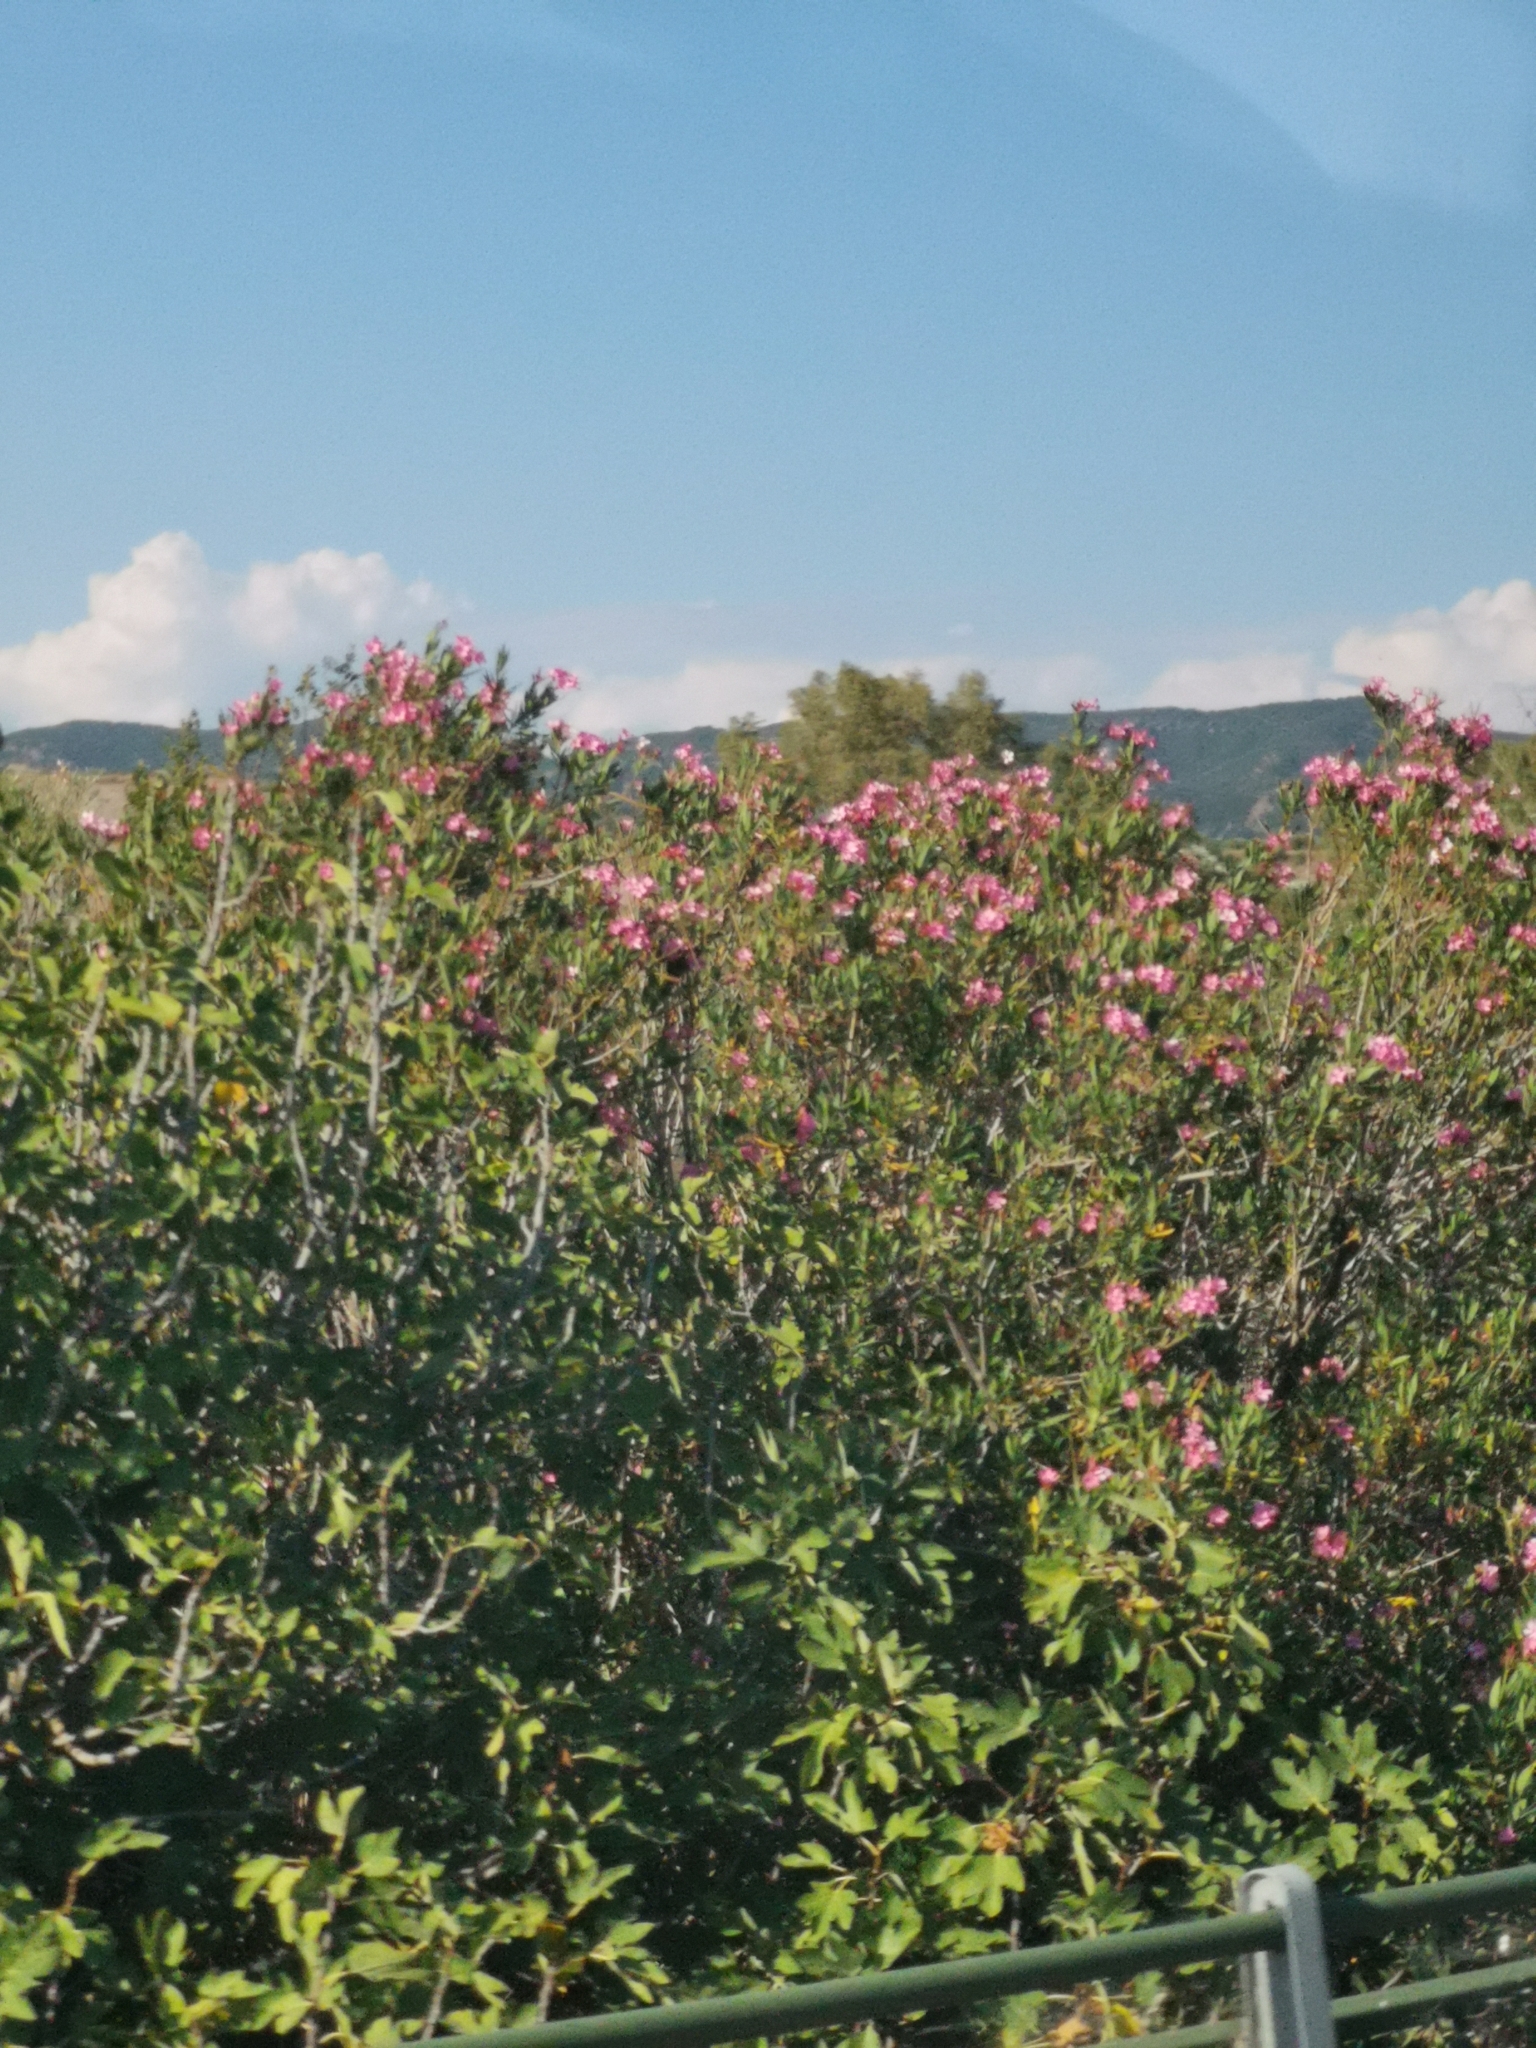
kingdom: Plantae
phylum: Tracheophyta
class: Magnoliopsida
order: Gentianales
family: Apocynaceae
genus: Nerium
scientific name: Nerium oleander
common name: Oleander
